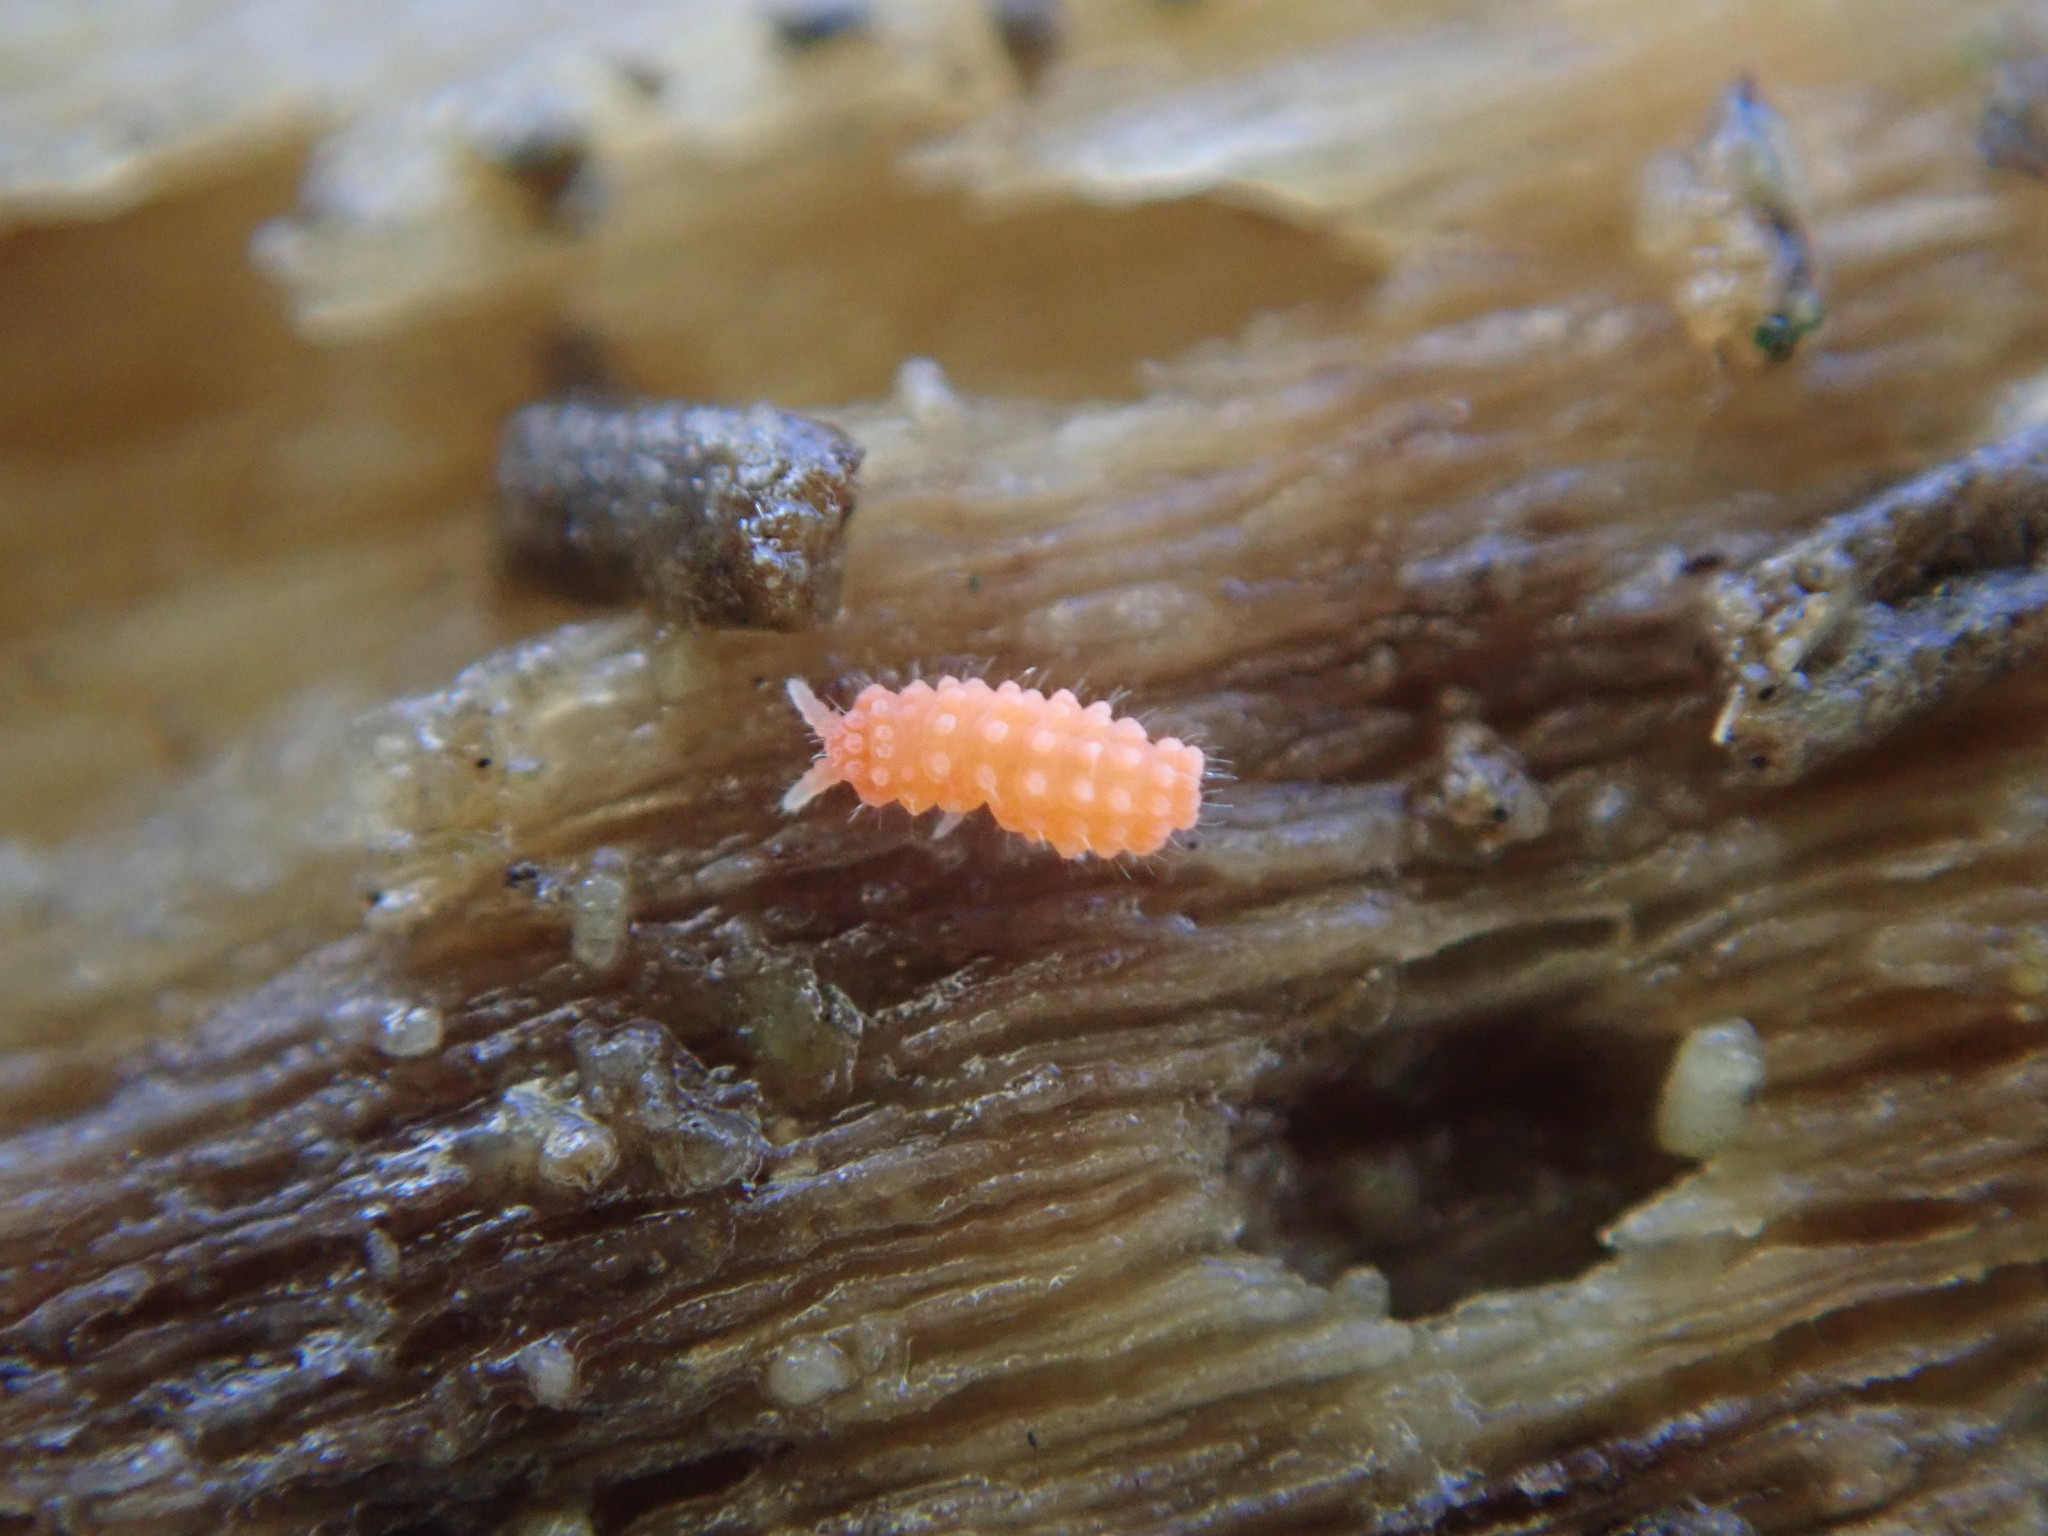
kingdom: Animalia
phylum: Arthropoda
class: Collembola
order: Poduromorpha
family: Neanuridae
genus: Vitronura
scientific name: Vitronura giselae
